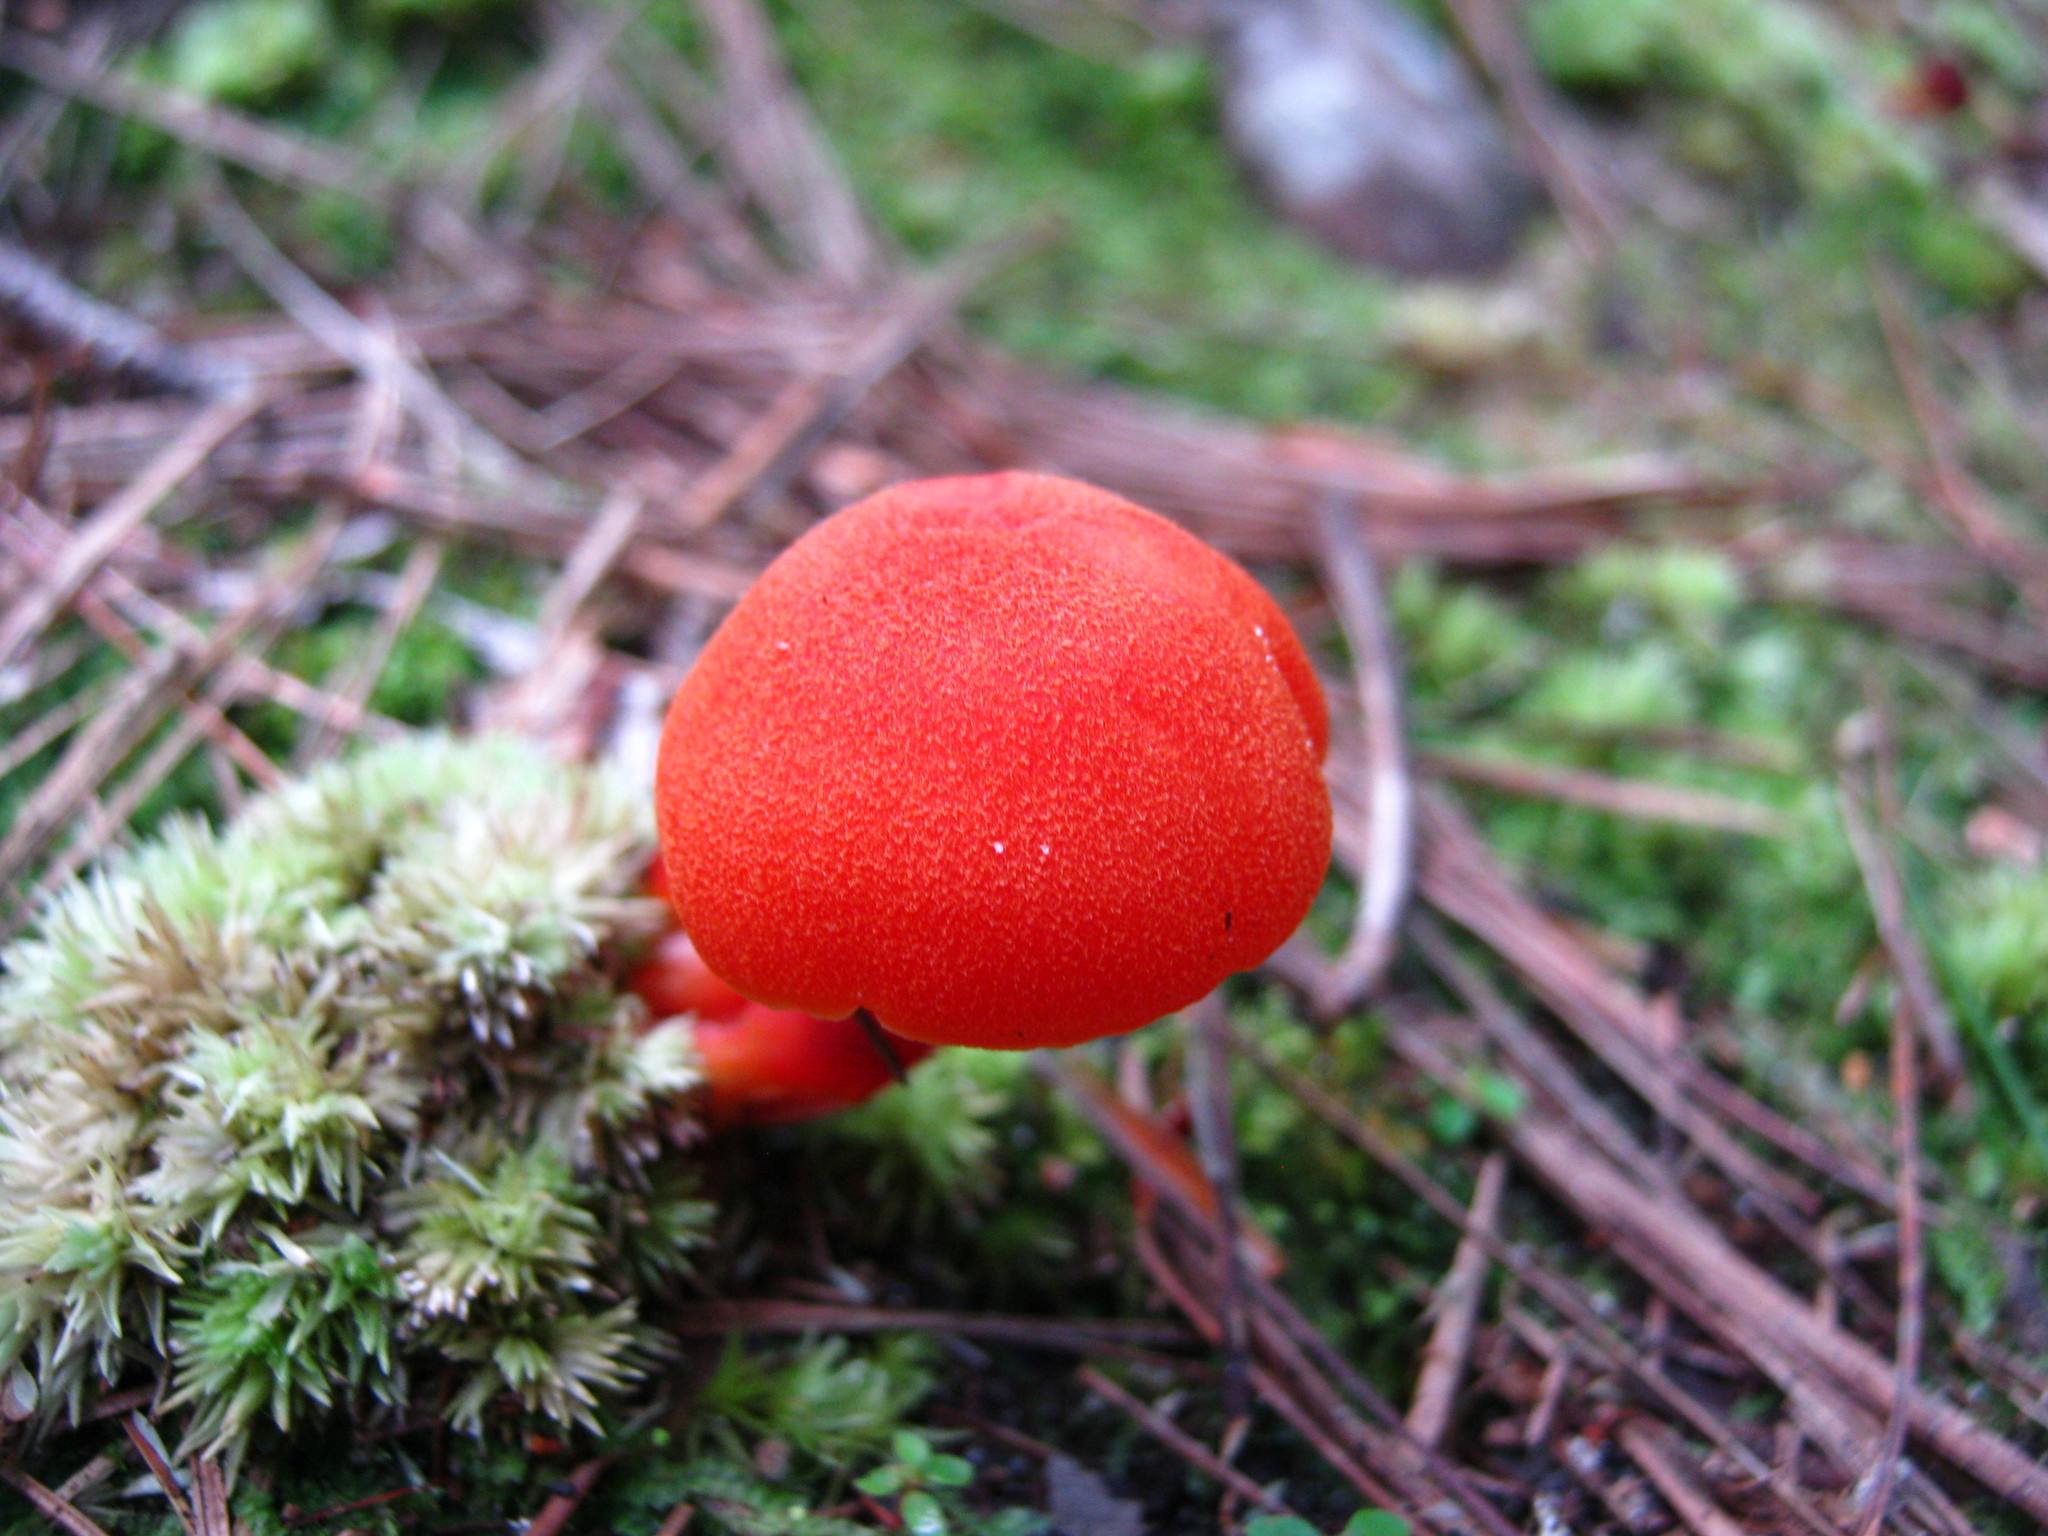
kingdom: Fungi
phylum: Basidiomycota
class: Agaricomycetes
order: Agaricales
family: Hygrophoraceae
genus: Hygrocybe
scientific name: Hygrocybe miniata
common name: Vermilion waxcap
